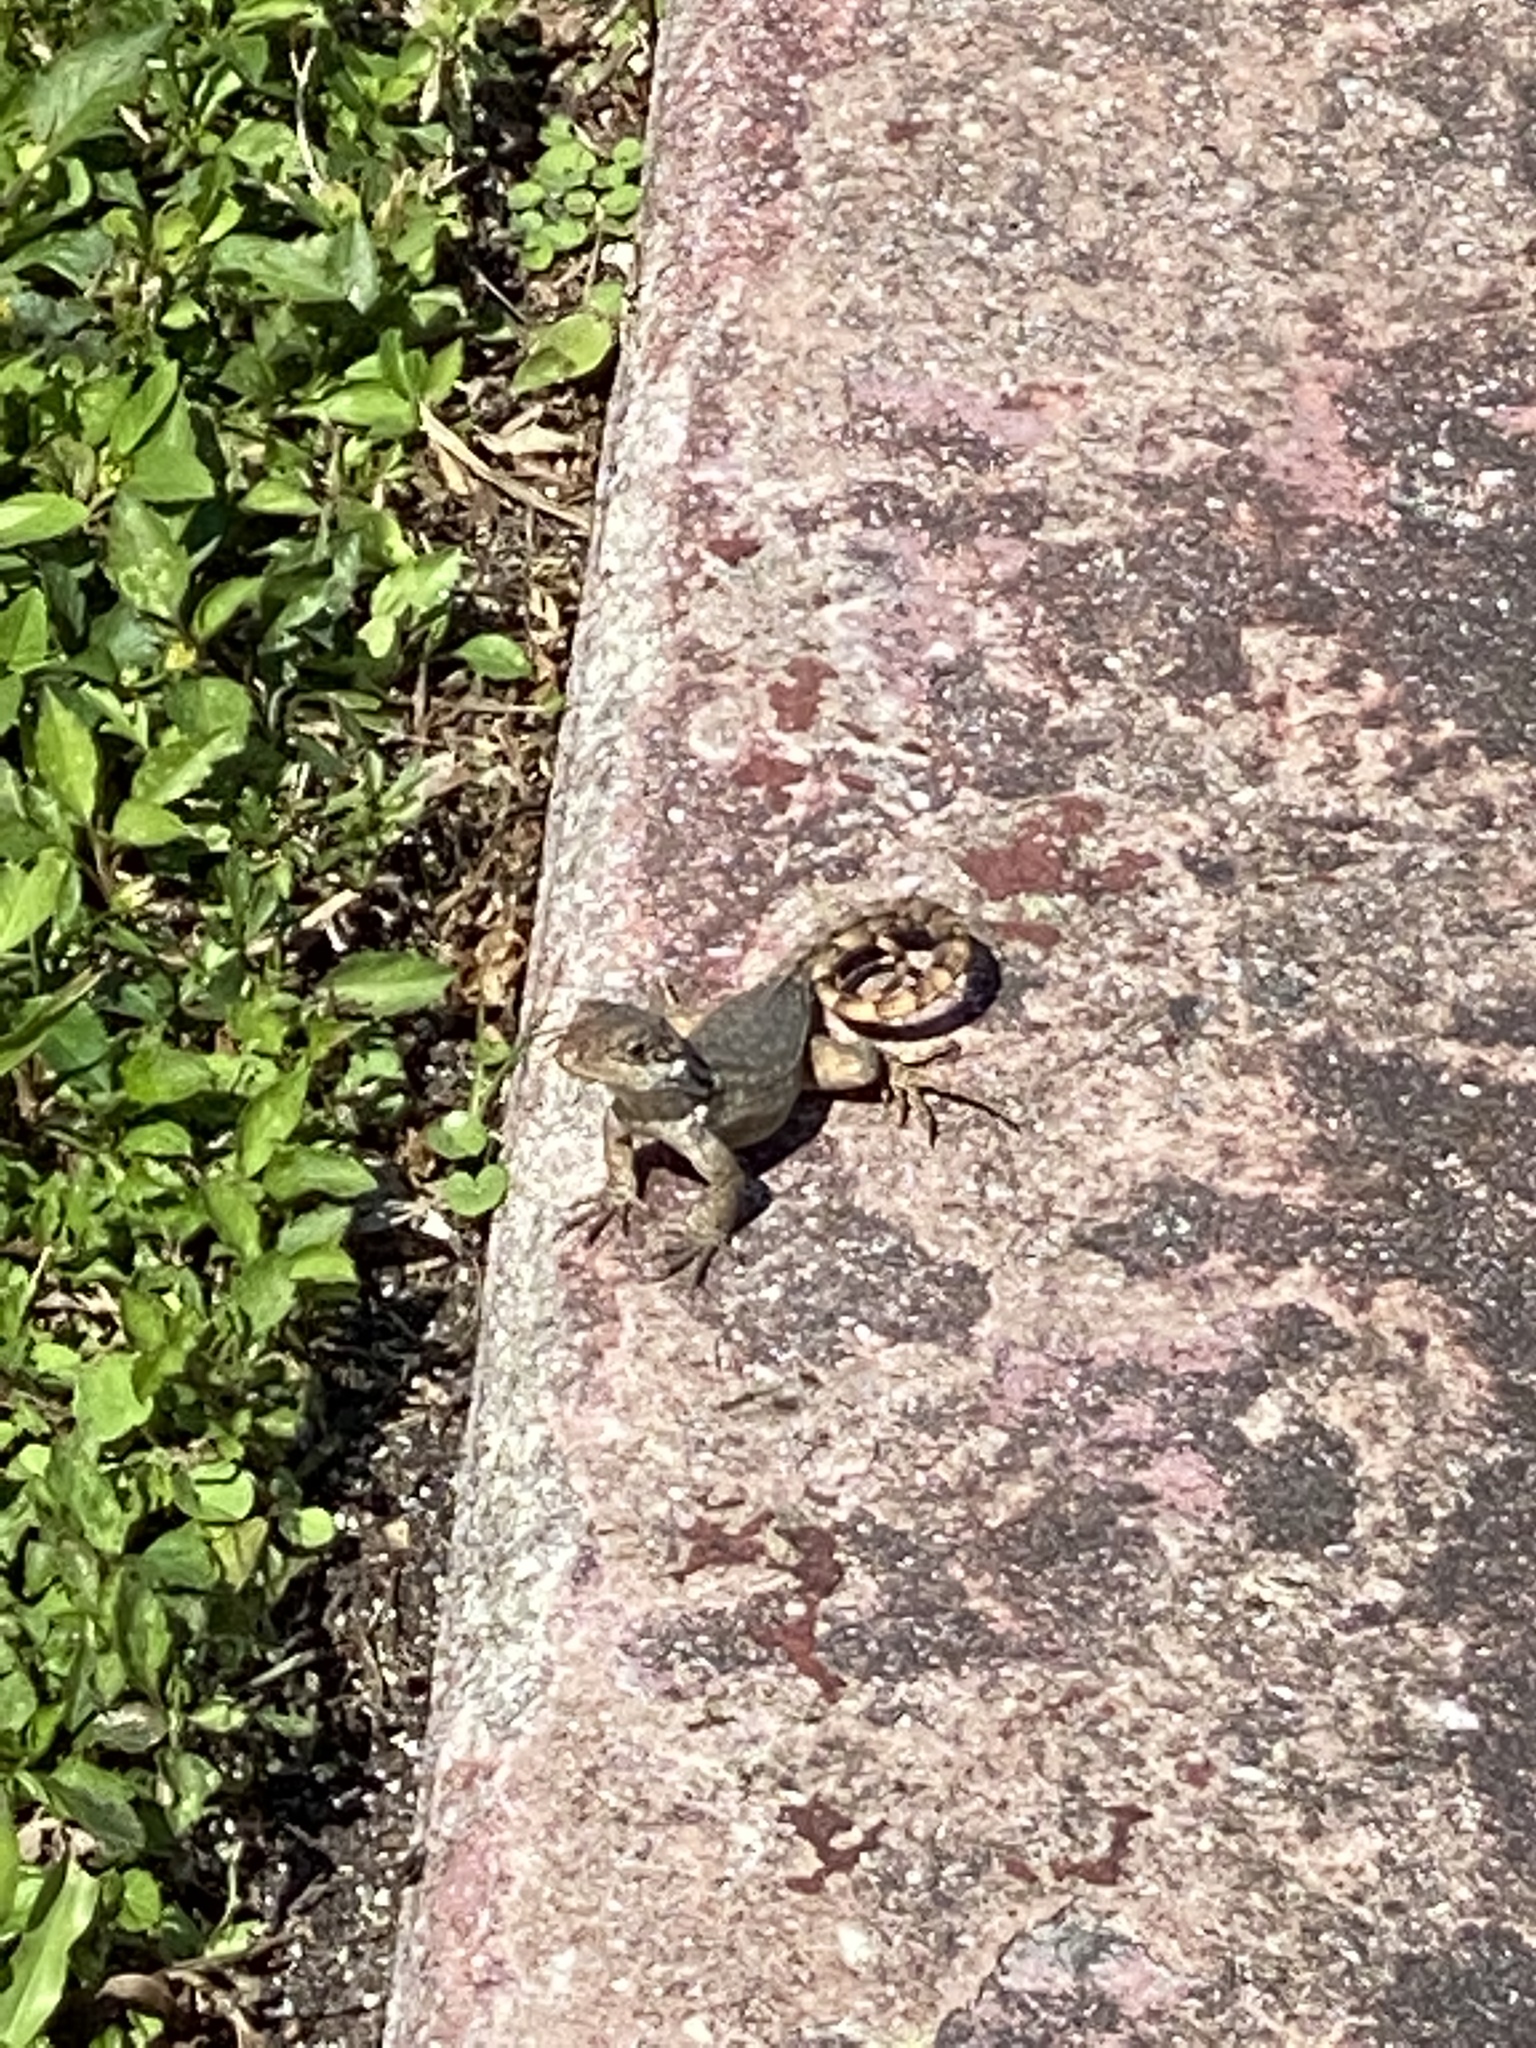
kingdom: Animalia
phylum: Chordata
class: Squamata
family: Leiocephalidae
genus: Leiocephalus
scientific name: Leiocephalus carinatus
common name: Northern curly-tailed lizard
